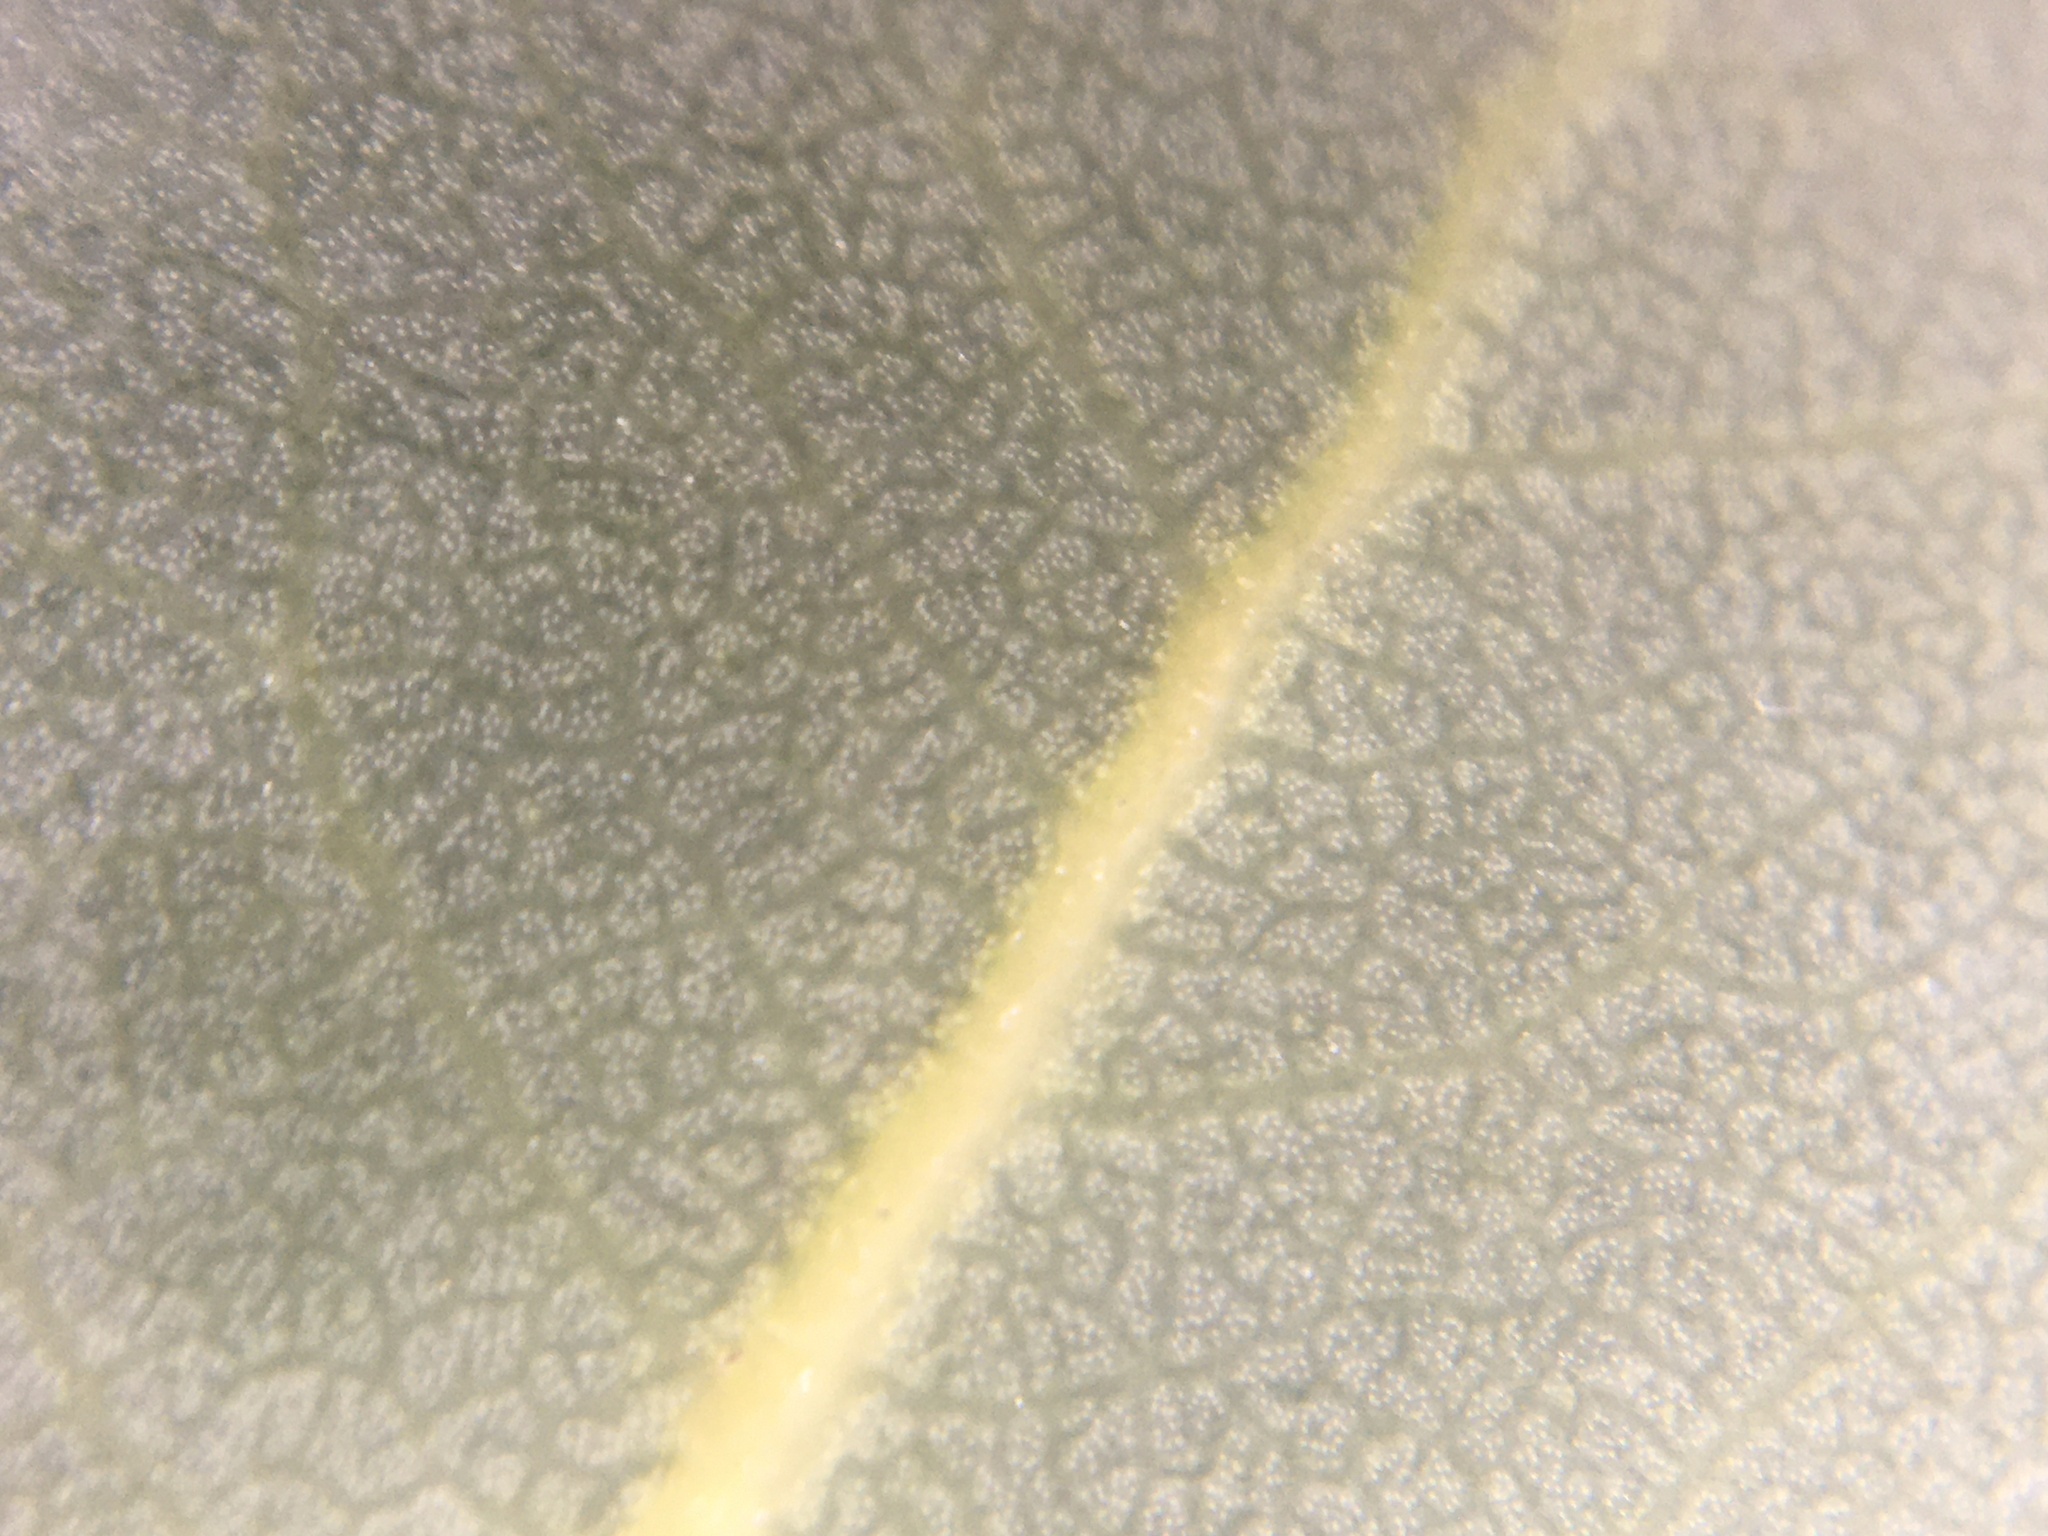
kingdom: Plantae
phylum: Tracheophyta
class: Magnoliopsida
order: Ericales
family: Ericaceae
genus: Arctostaphylos
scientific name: Arctostaphylos refugioensis
